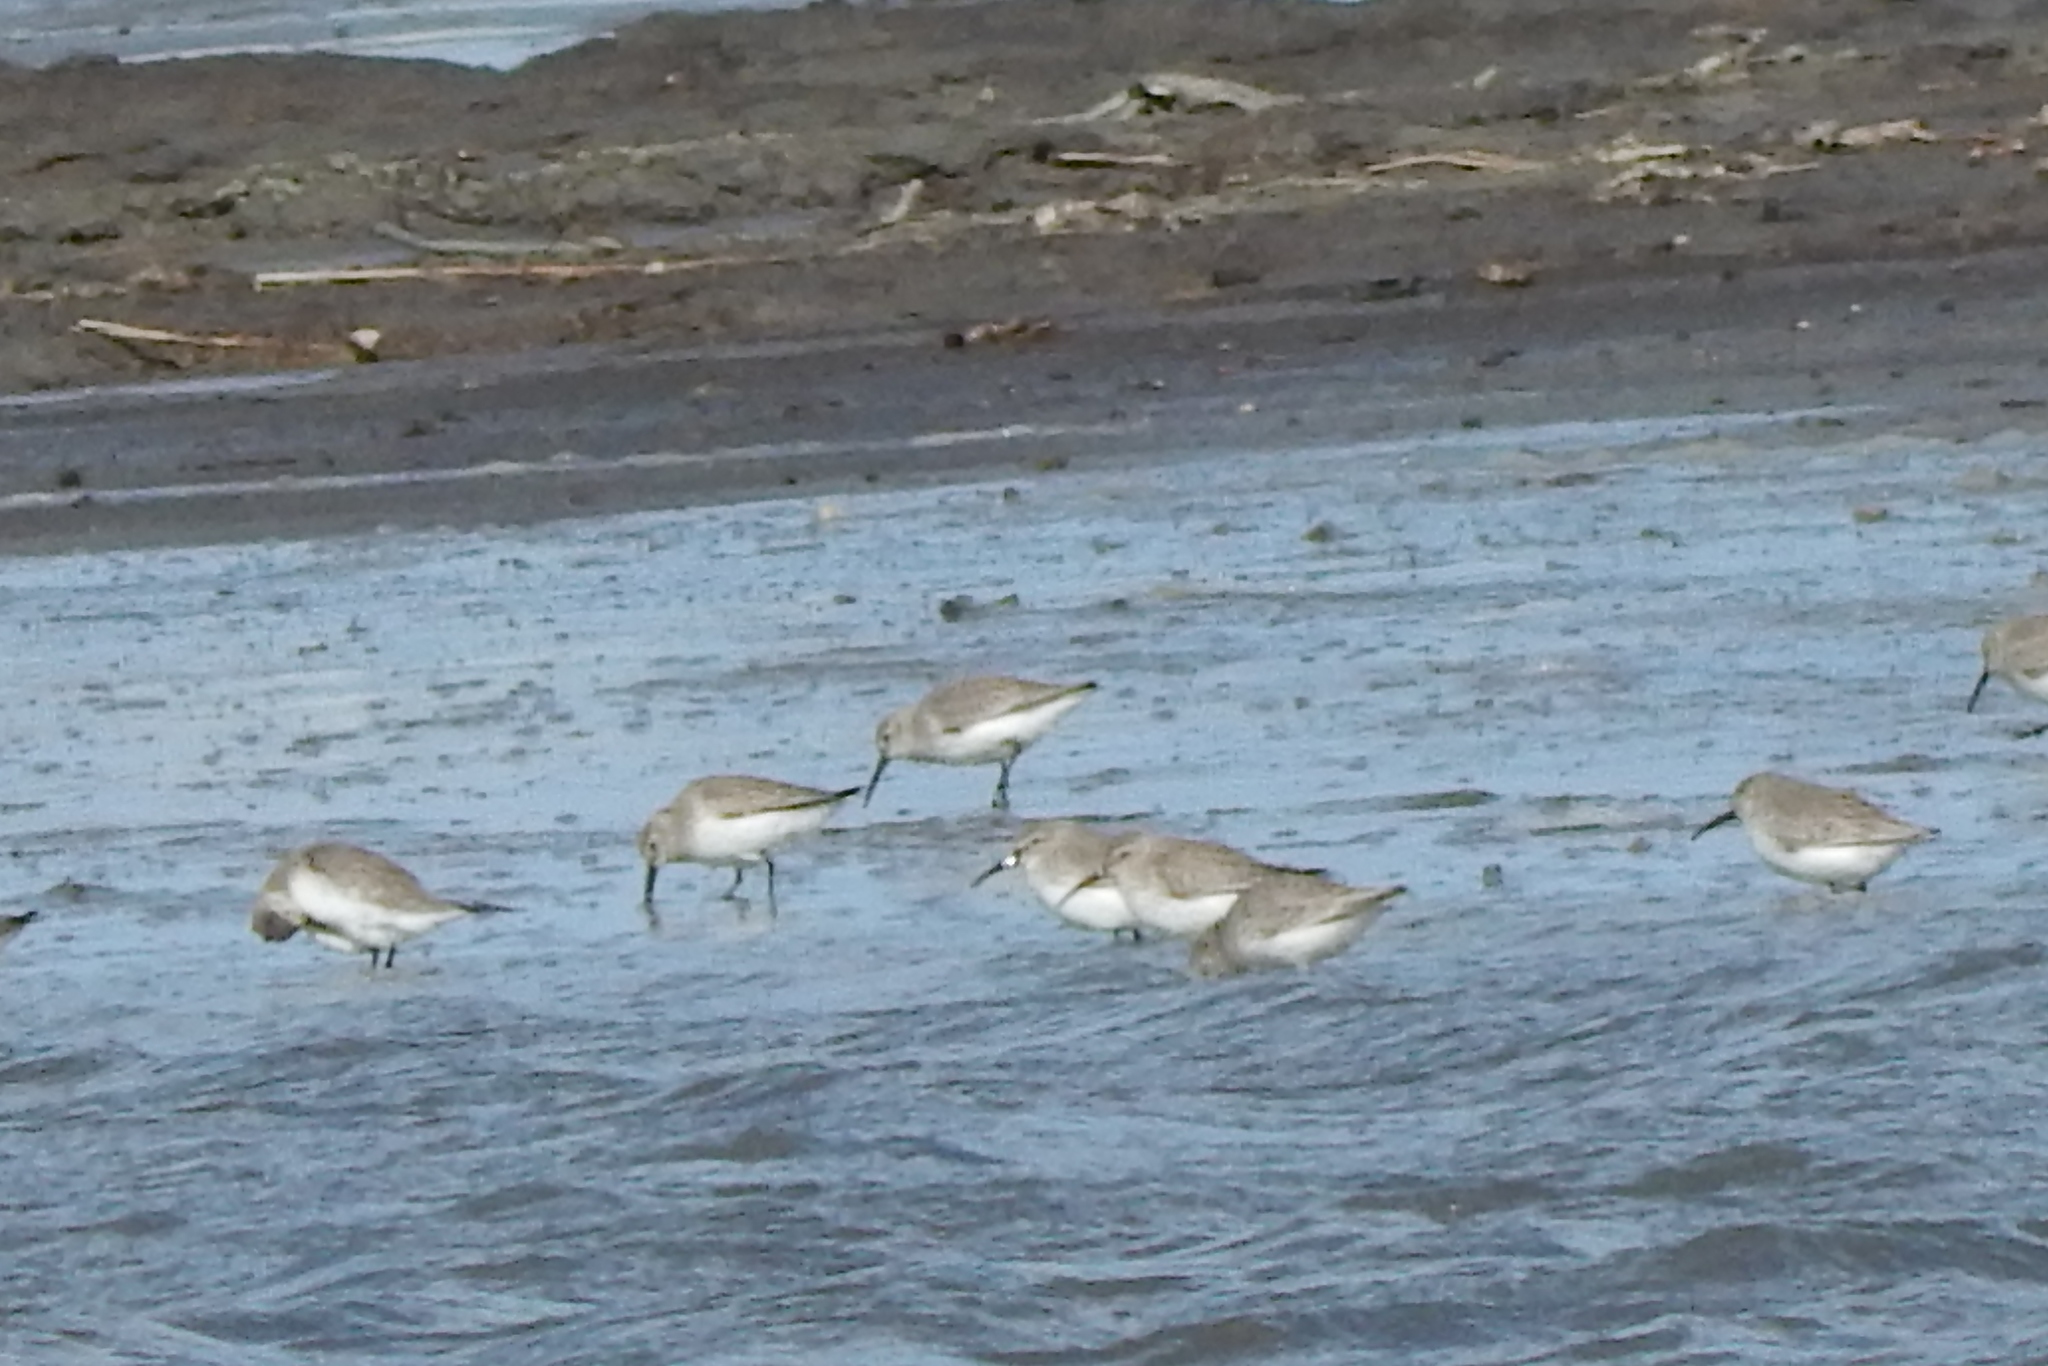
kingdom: Animalia
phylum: Chordata
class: Aves
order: Charadriiformes
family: Scolopacidae
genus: Calidris
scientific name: Calidris alpina
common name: Dunlin
